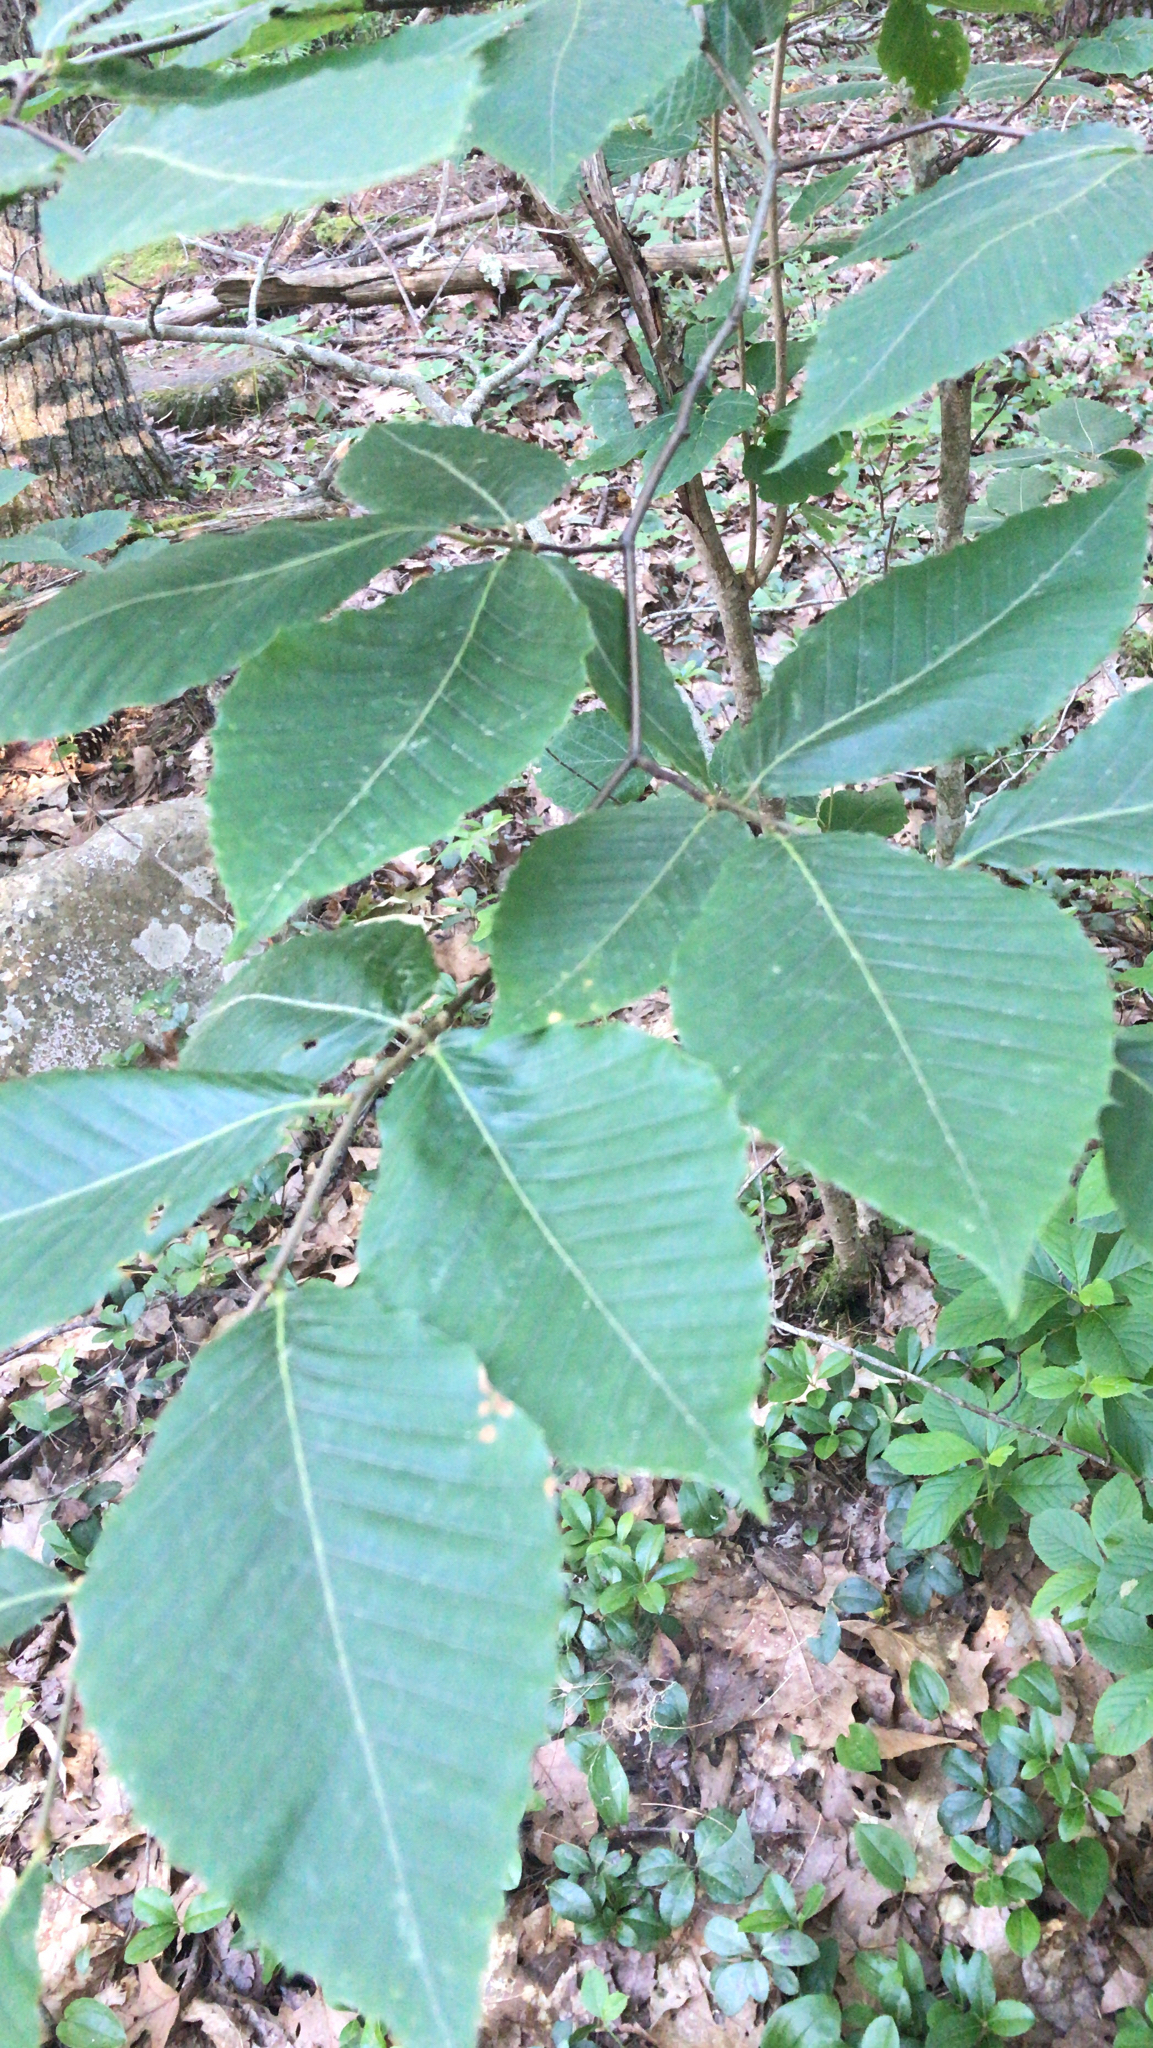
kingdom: Plantae
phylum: Tracheophyta
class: Magnoliopsida
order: Fagales
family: Fagaceae
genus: Fagus
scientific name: Fagus grandifolia
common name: American beech
